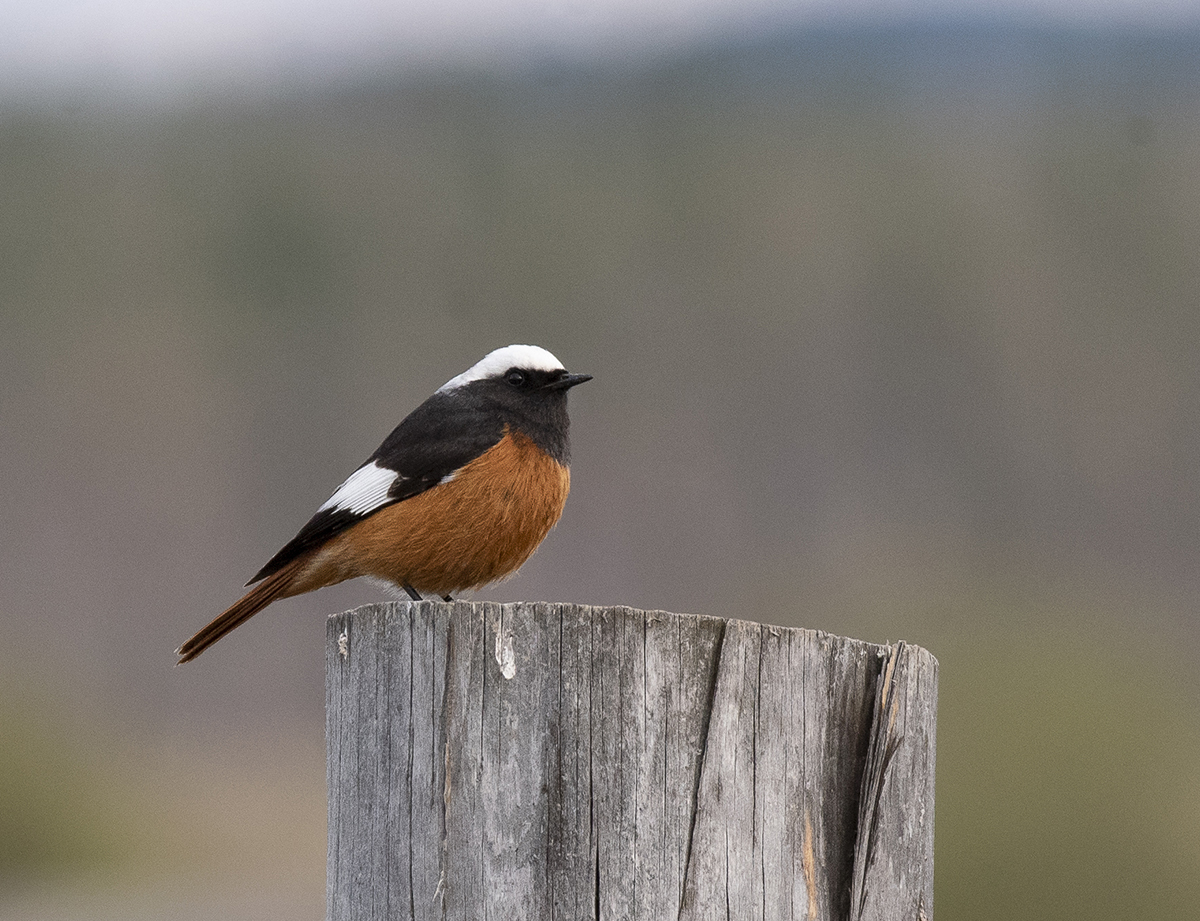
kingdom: Animalia
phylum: Chordata
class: Aves
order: Passeriformes
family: Muscicapidae
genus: Phoenicurus
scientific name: Phoenicurus erythrogastrus
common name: Güldenstädt's redstart
